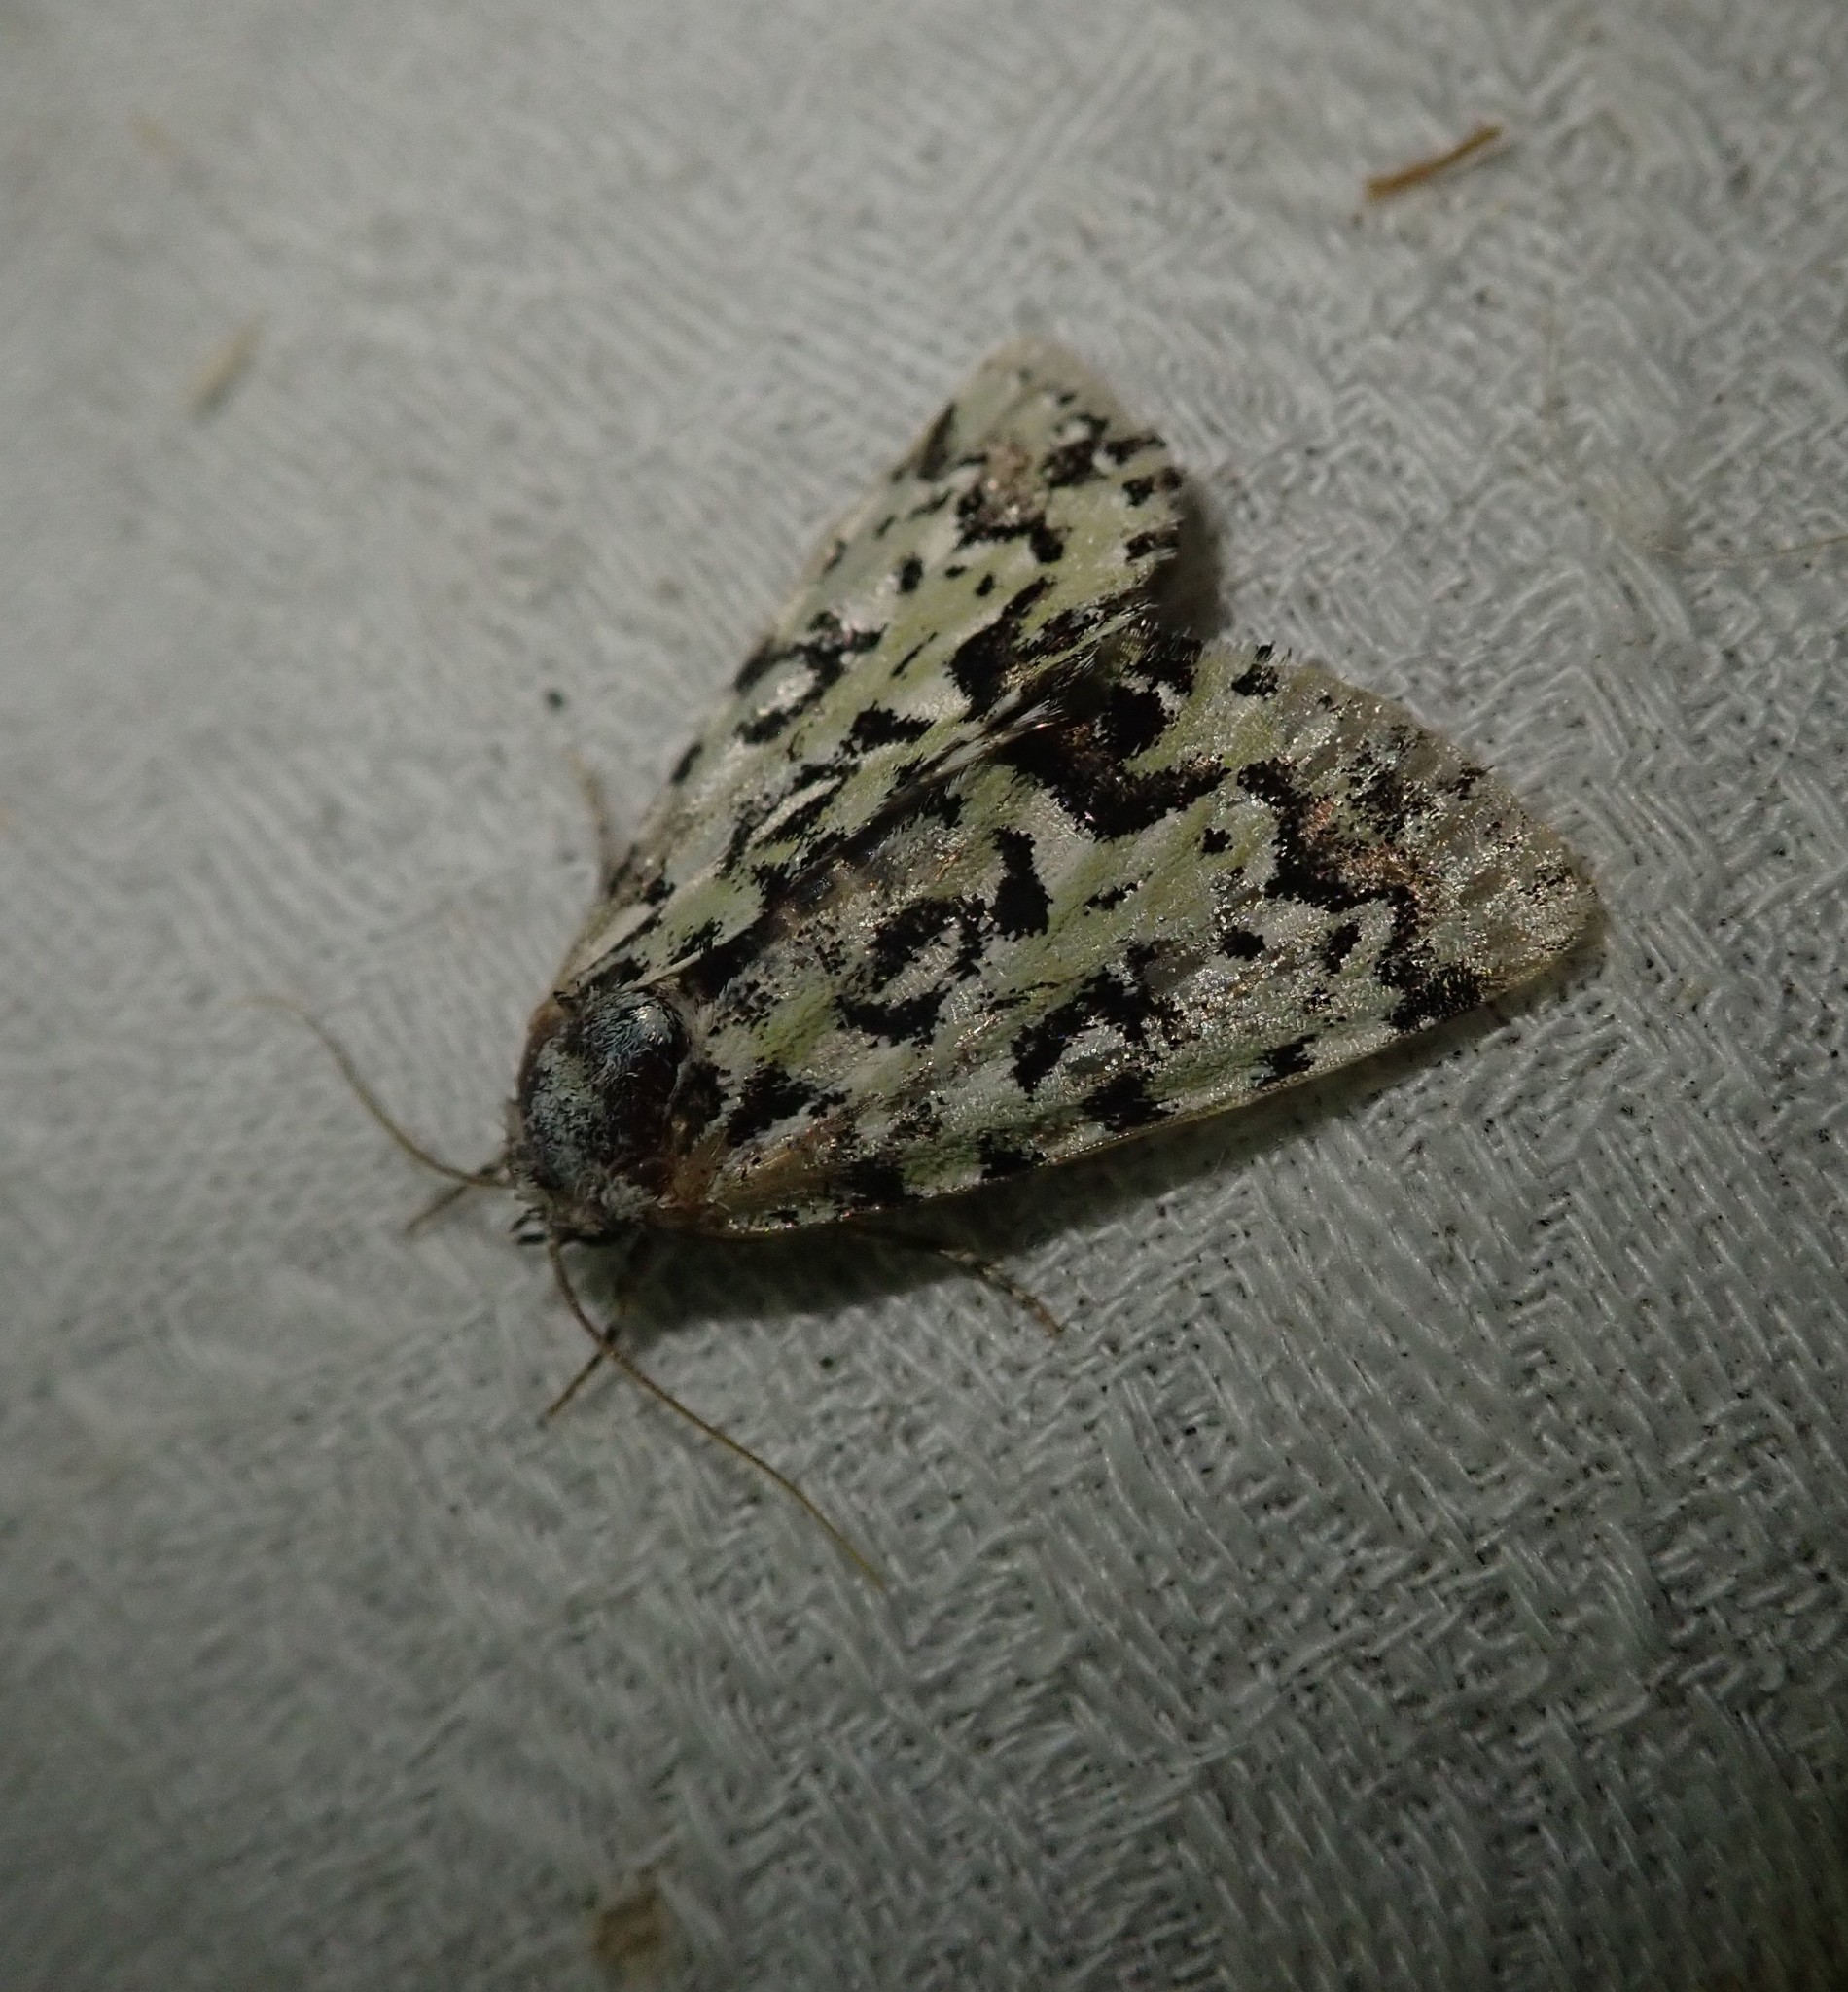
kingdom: Animalia
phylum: Arthropoda
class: Insecta
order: Lepidoptera
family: Noctuidae
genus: Moma
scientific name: Moma alpium
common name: Scarce merveille du jour
